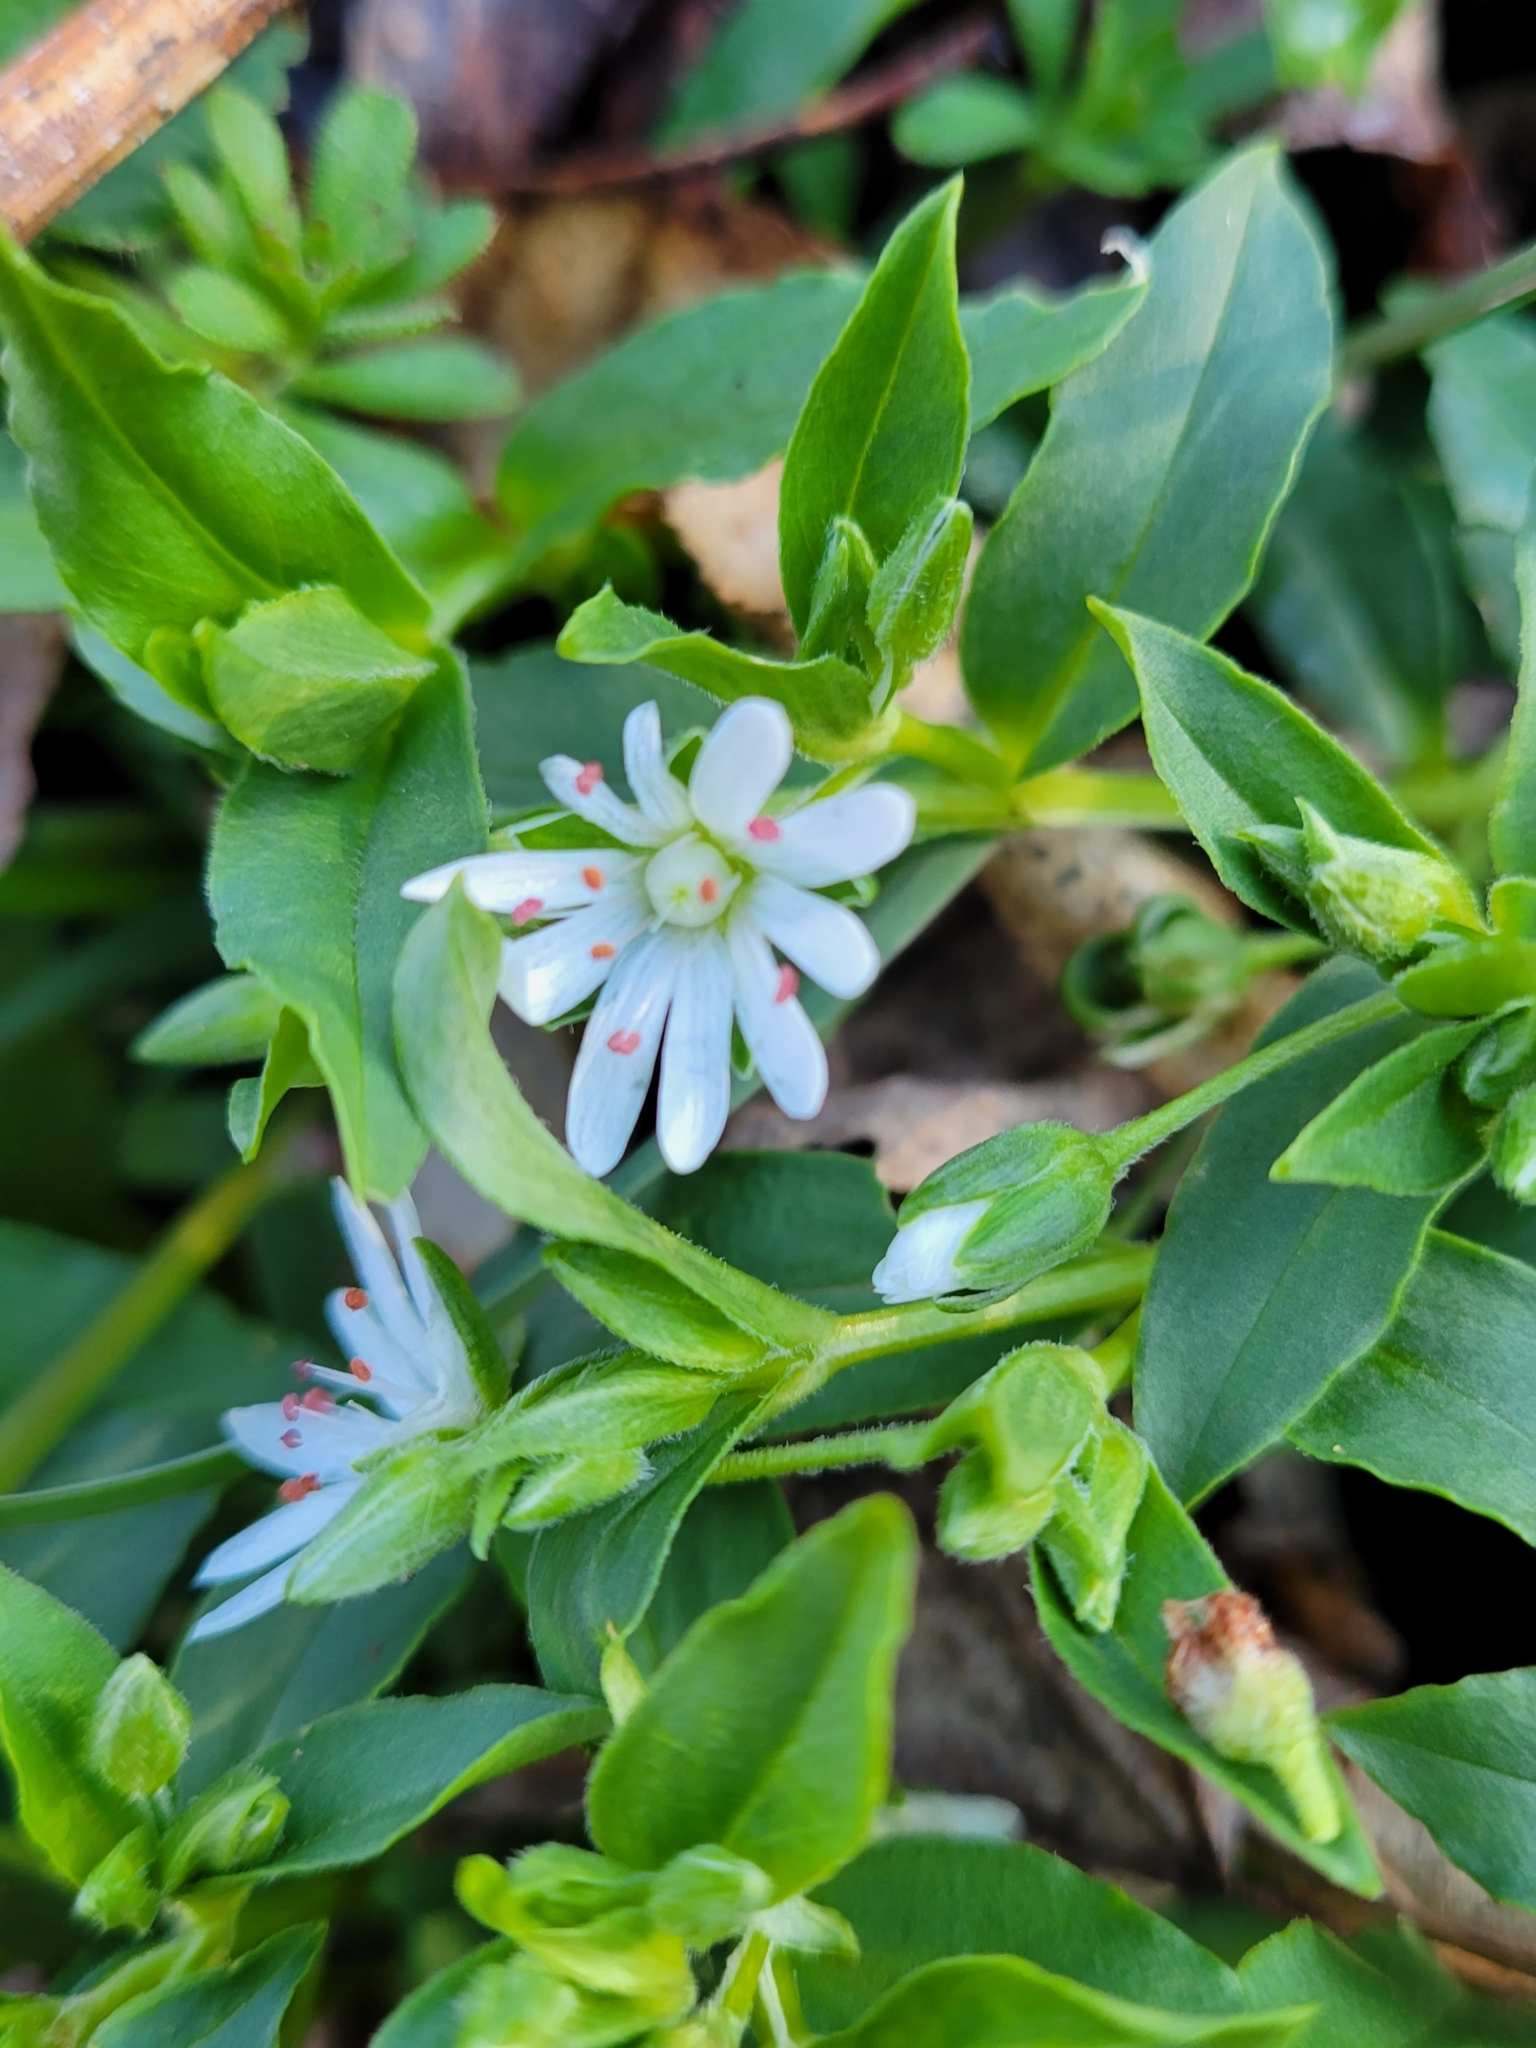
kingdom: Plantae
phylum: Tracheophyta
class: Magnoliopsida
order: Caryophyllales
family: Caryophyllaceae
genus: Stellaria
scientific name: Stellaria pubera
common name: Star chickweed
